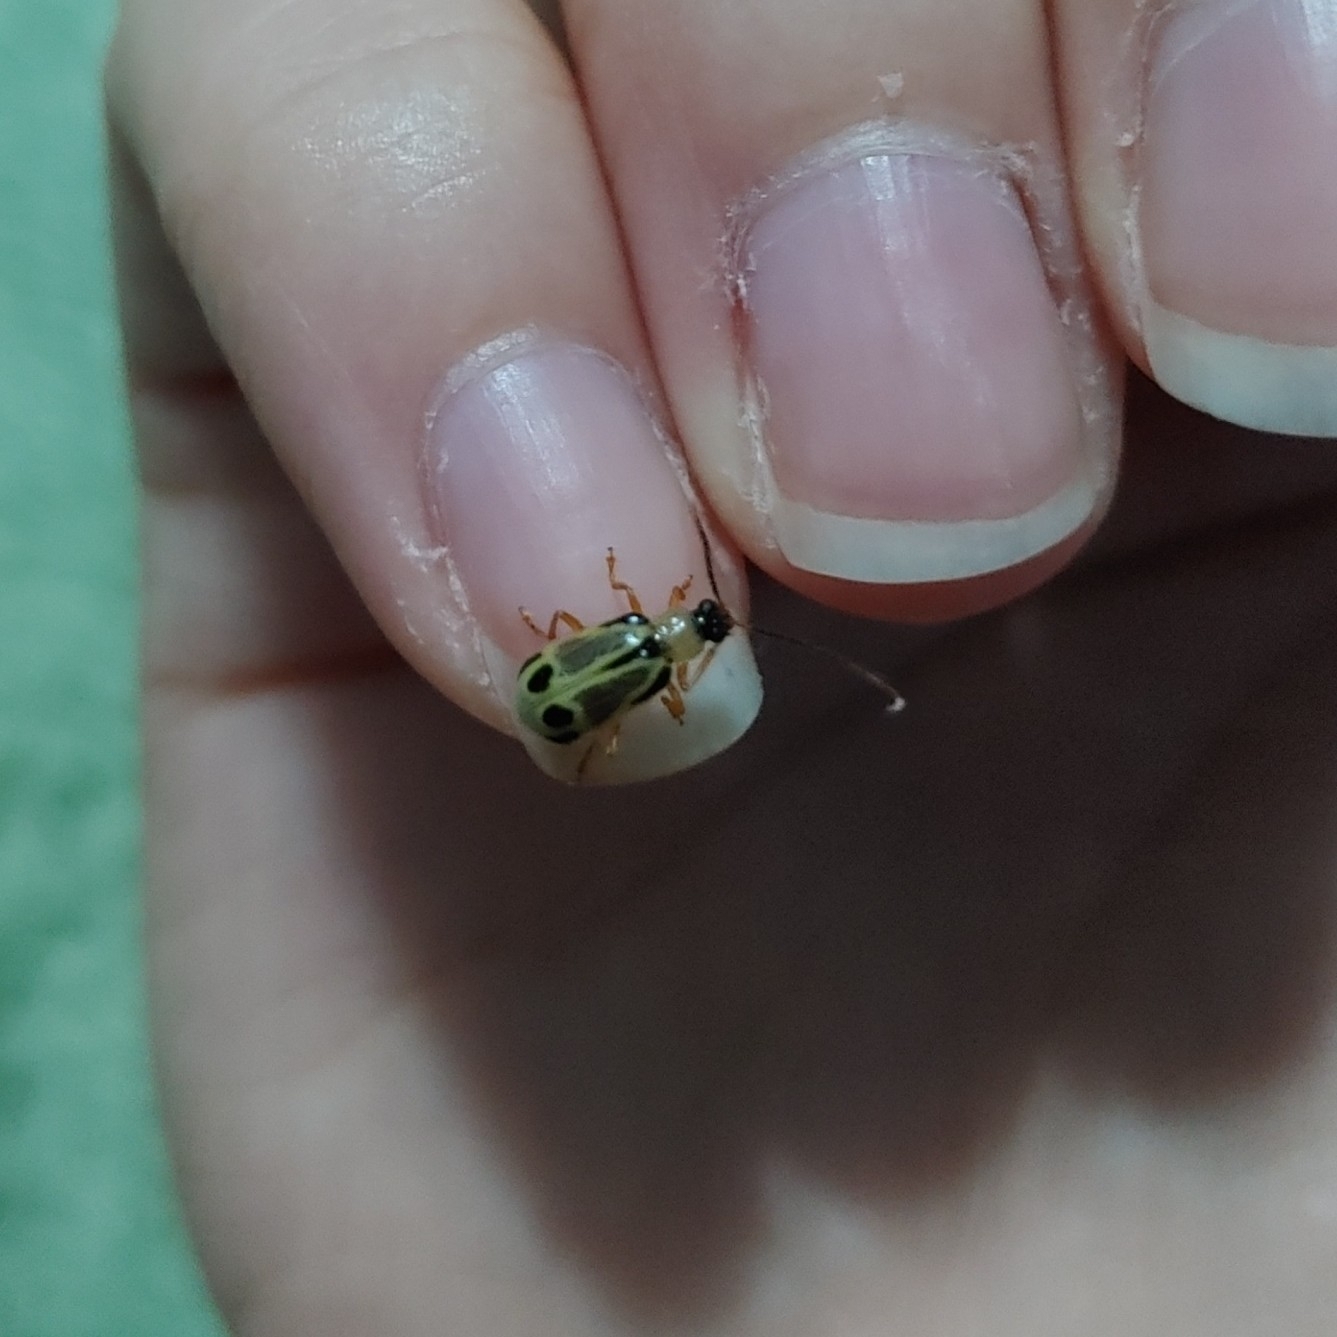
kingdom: Animalia
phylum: Arthropoda
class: Insecta
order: Coleoptera
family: Chrysomelidae
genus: Diabrotica
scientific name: Diabrotica
